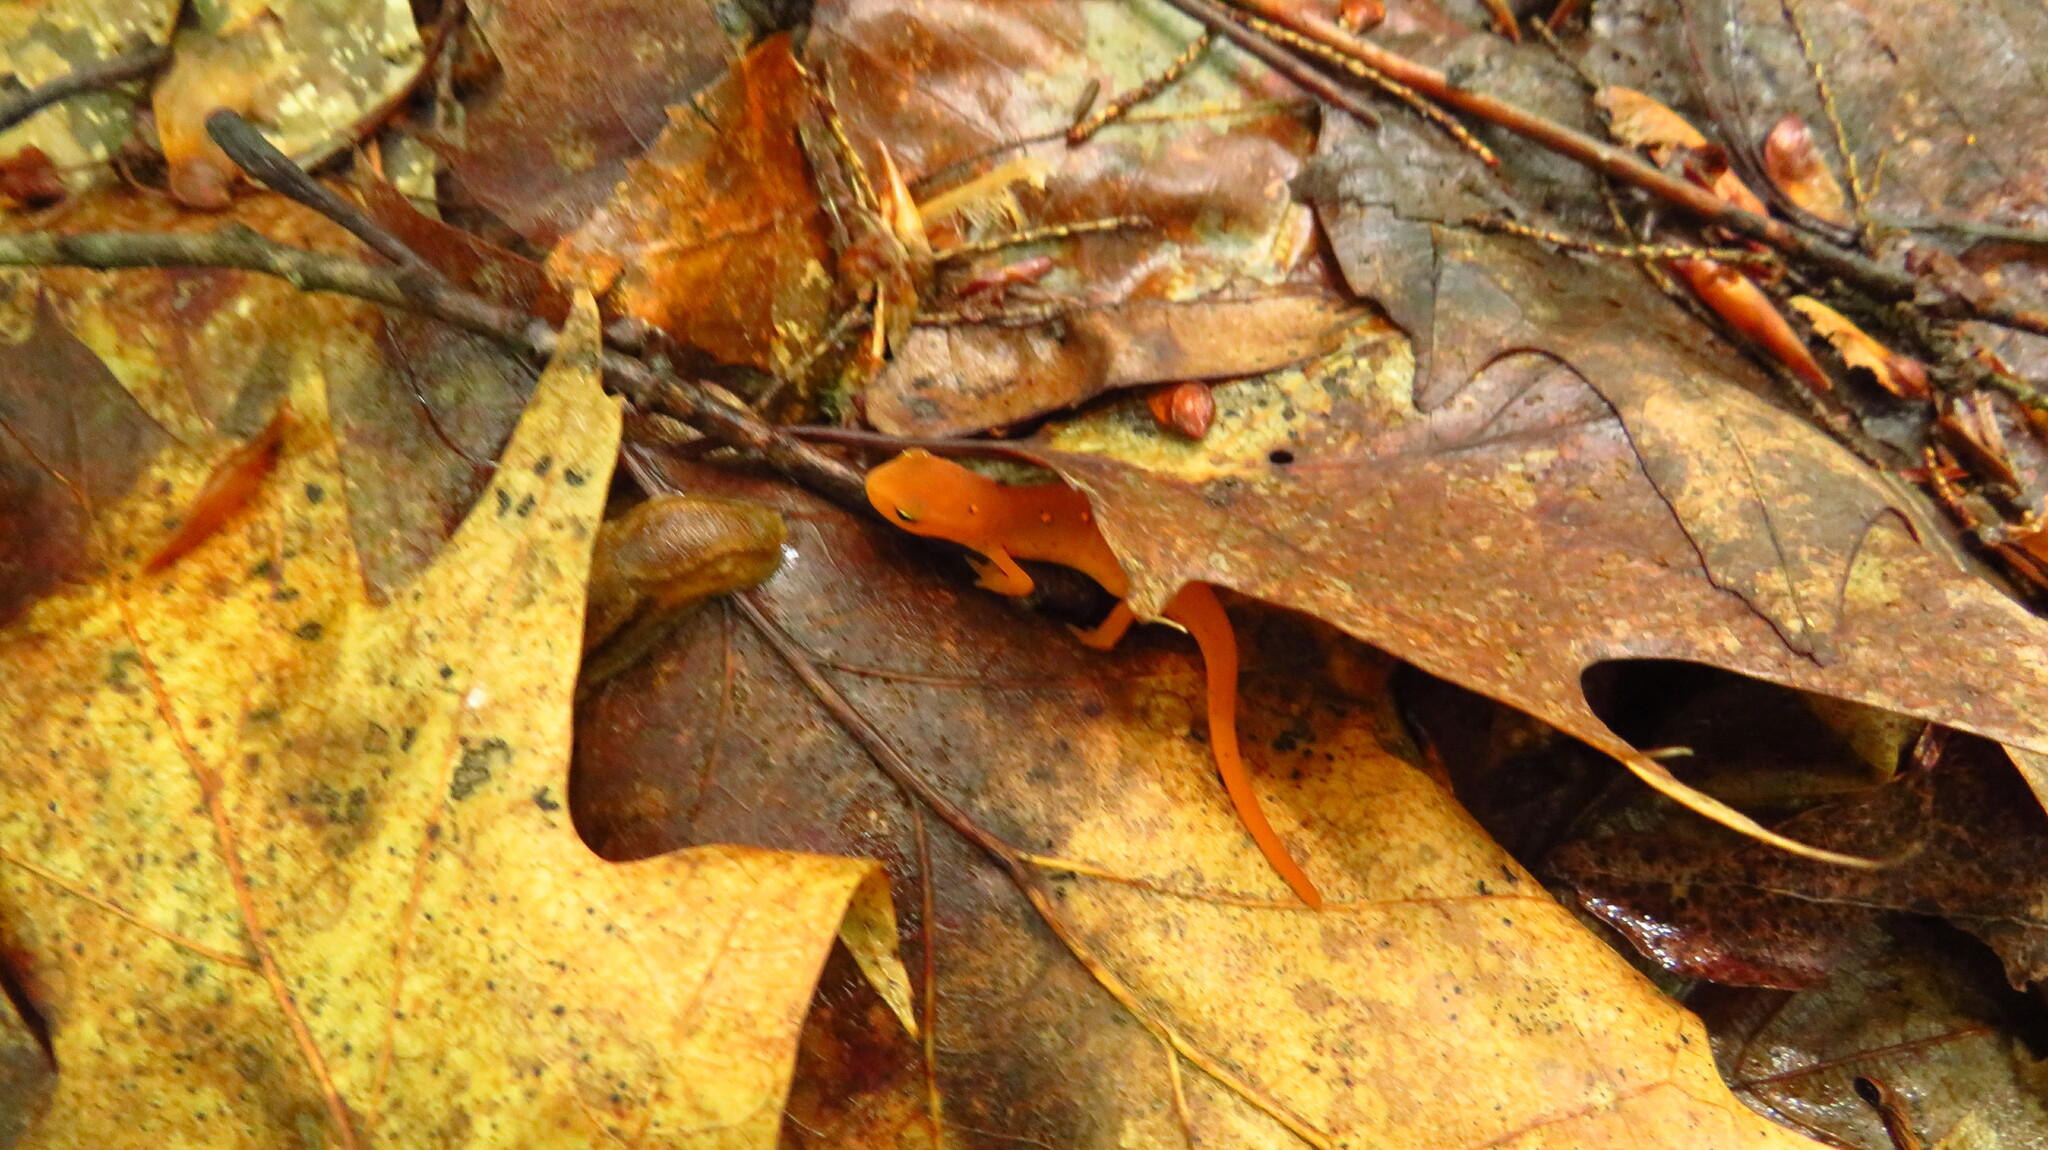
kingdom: Animalia
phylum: Chordata
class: Amphibia
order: Caudata
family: Salamandridae
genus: Notophthalmus
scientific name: Notophthalmus viridescens
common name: Eastern newt
